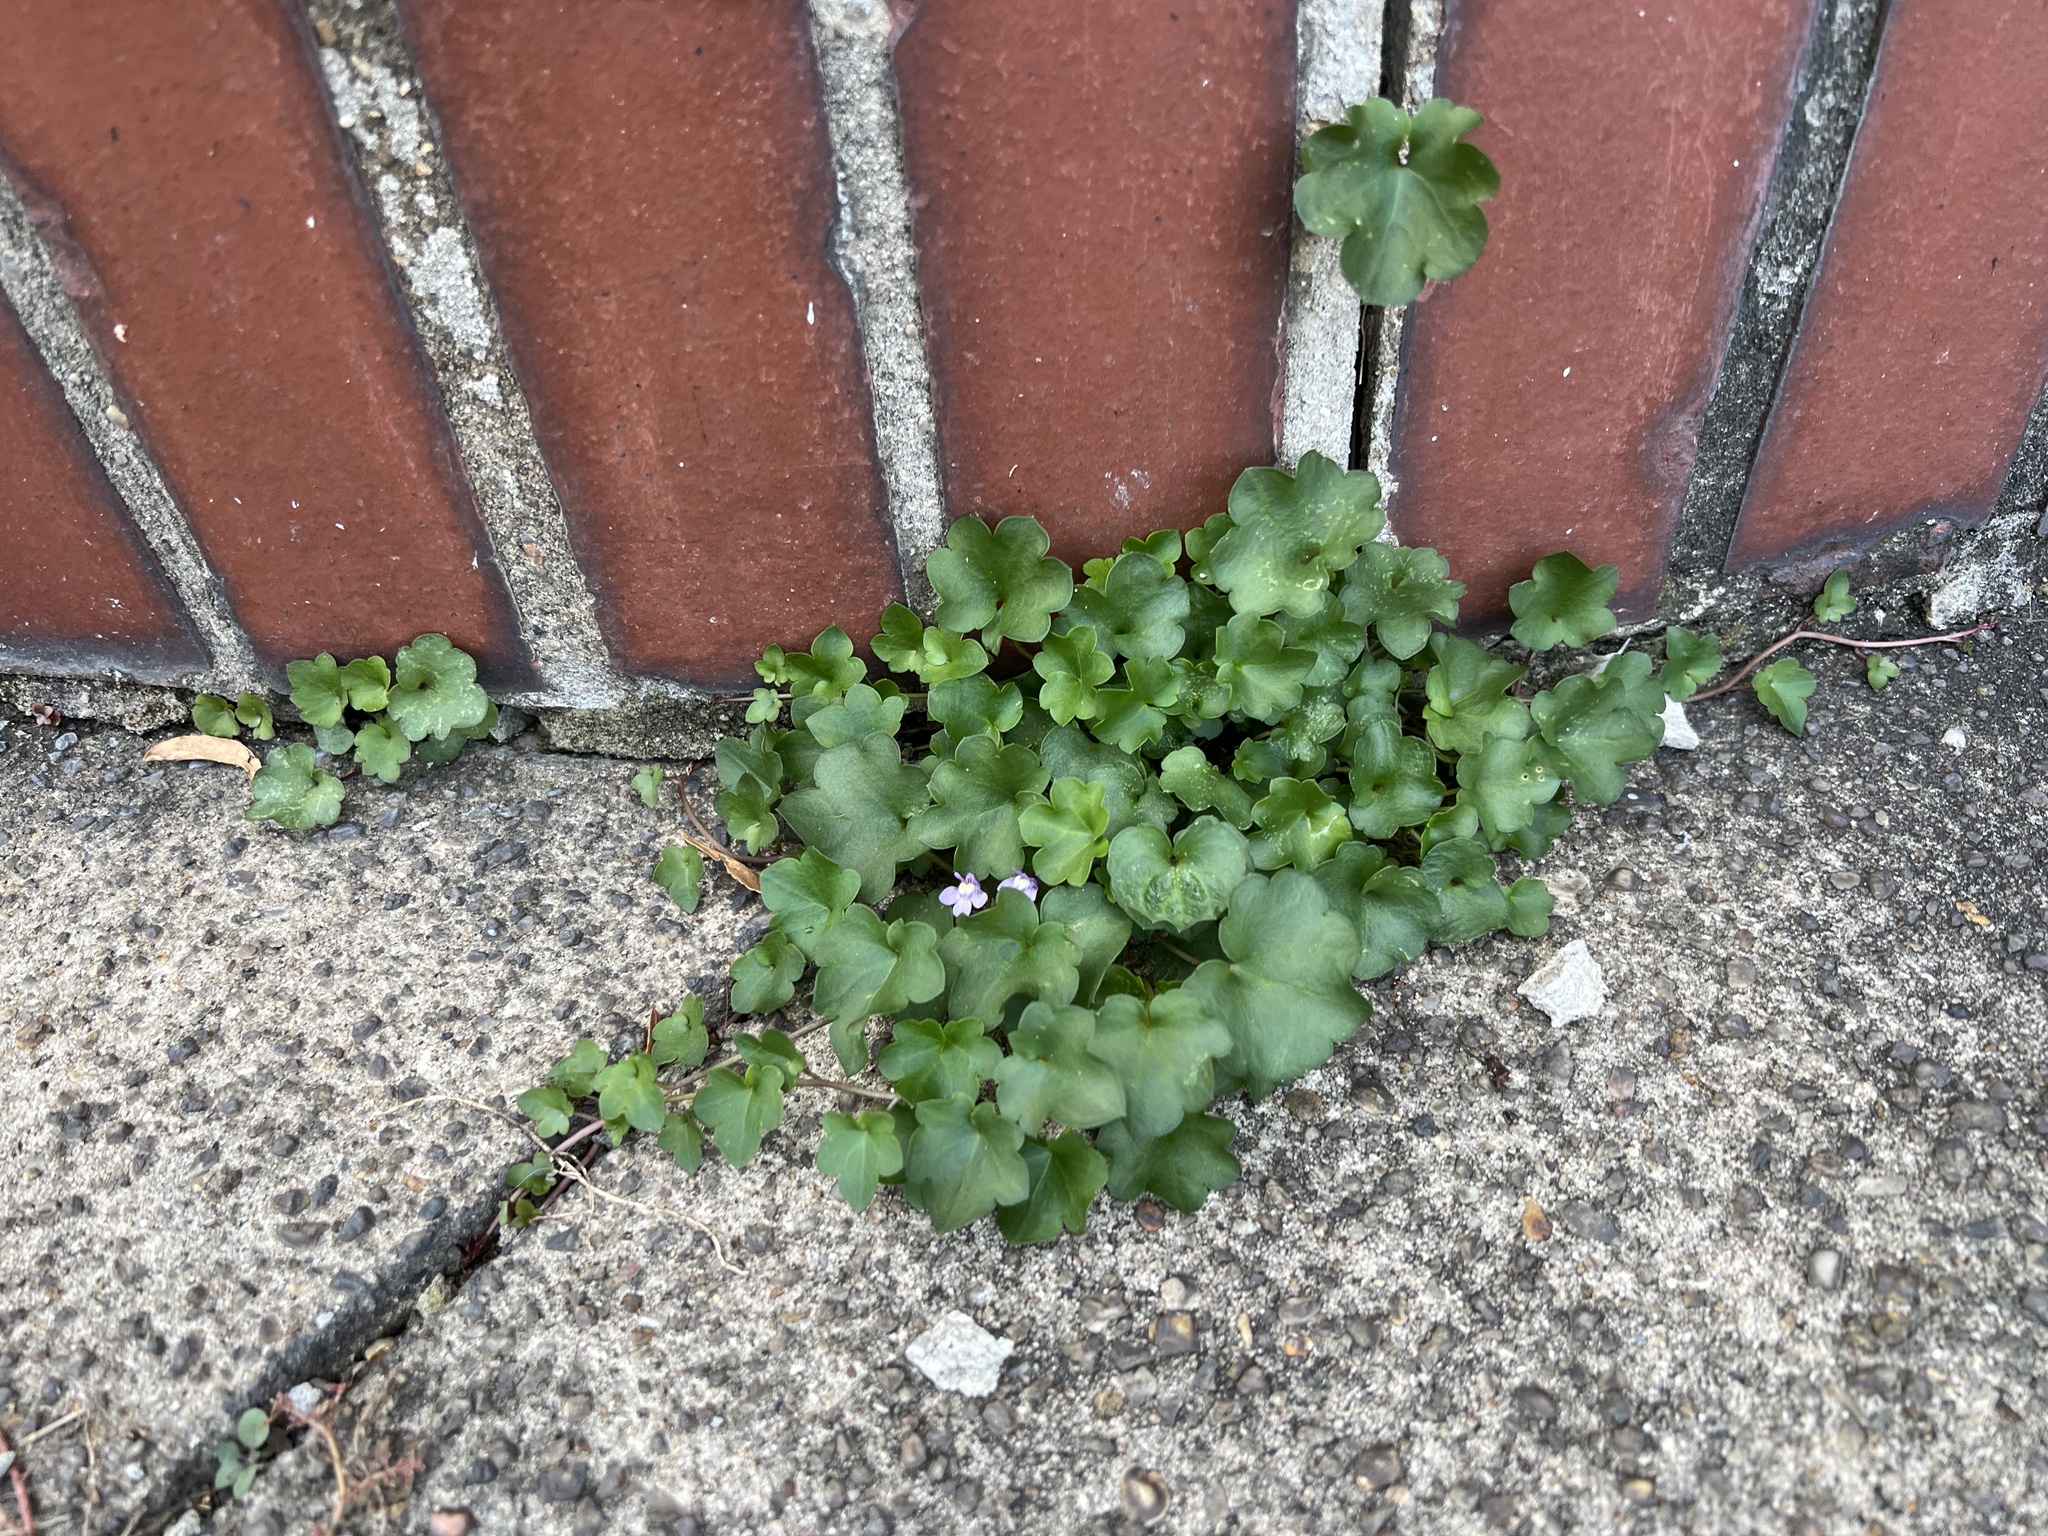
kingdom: Plantae
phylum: Tracheophyta
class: Magnoliopsida
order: Lamiales
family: Plantaginaceae
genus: Cymbalaria
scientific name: Cymbalaria muralis
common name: Ivy-leaved toadflax
